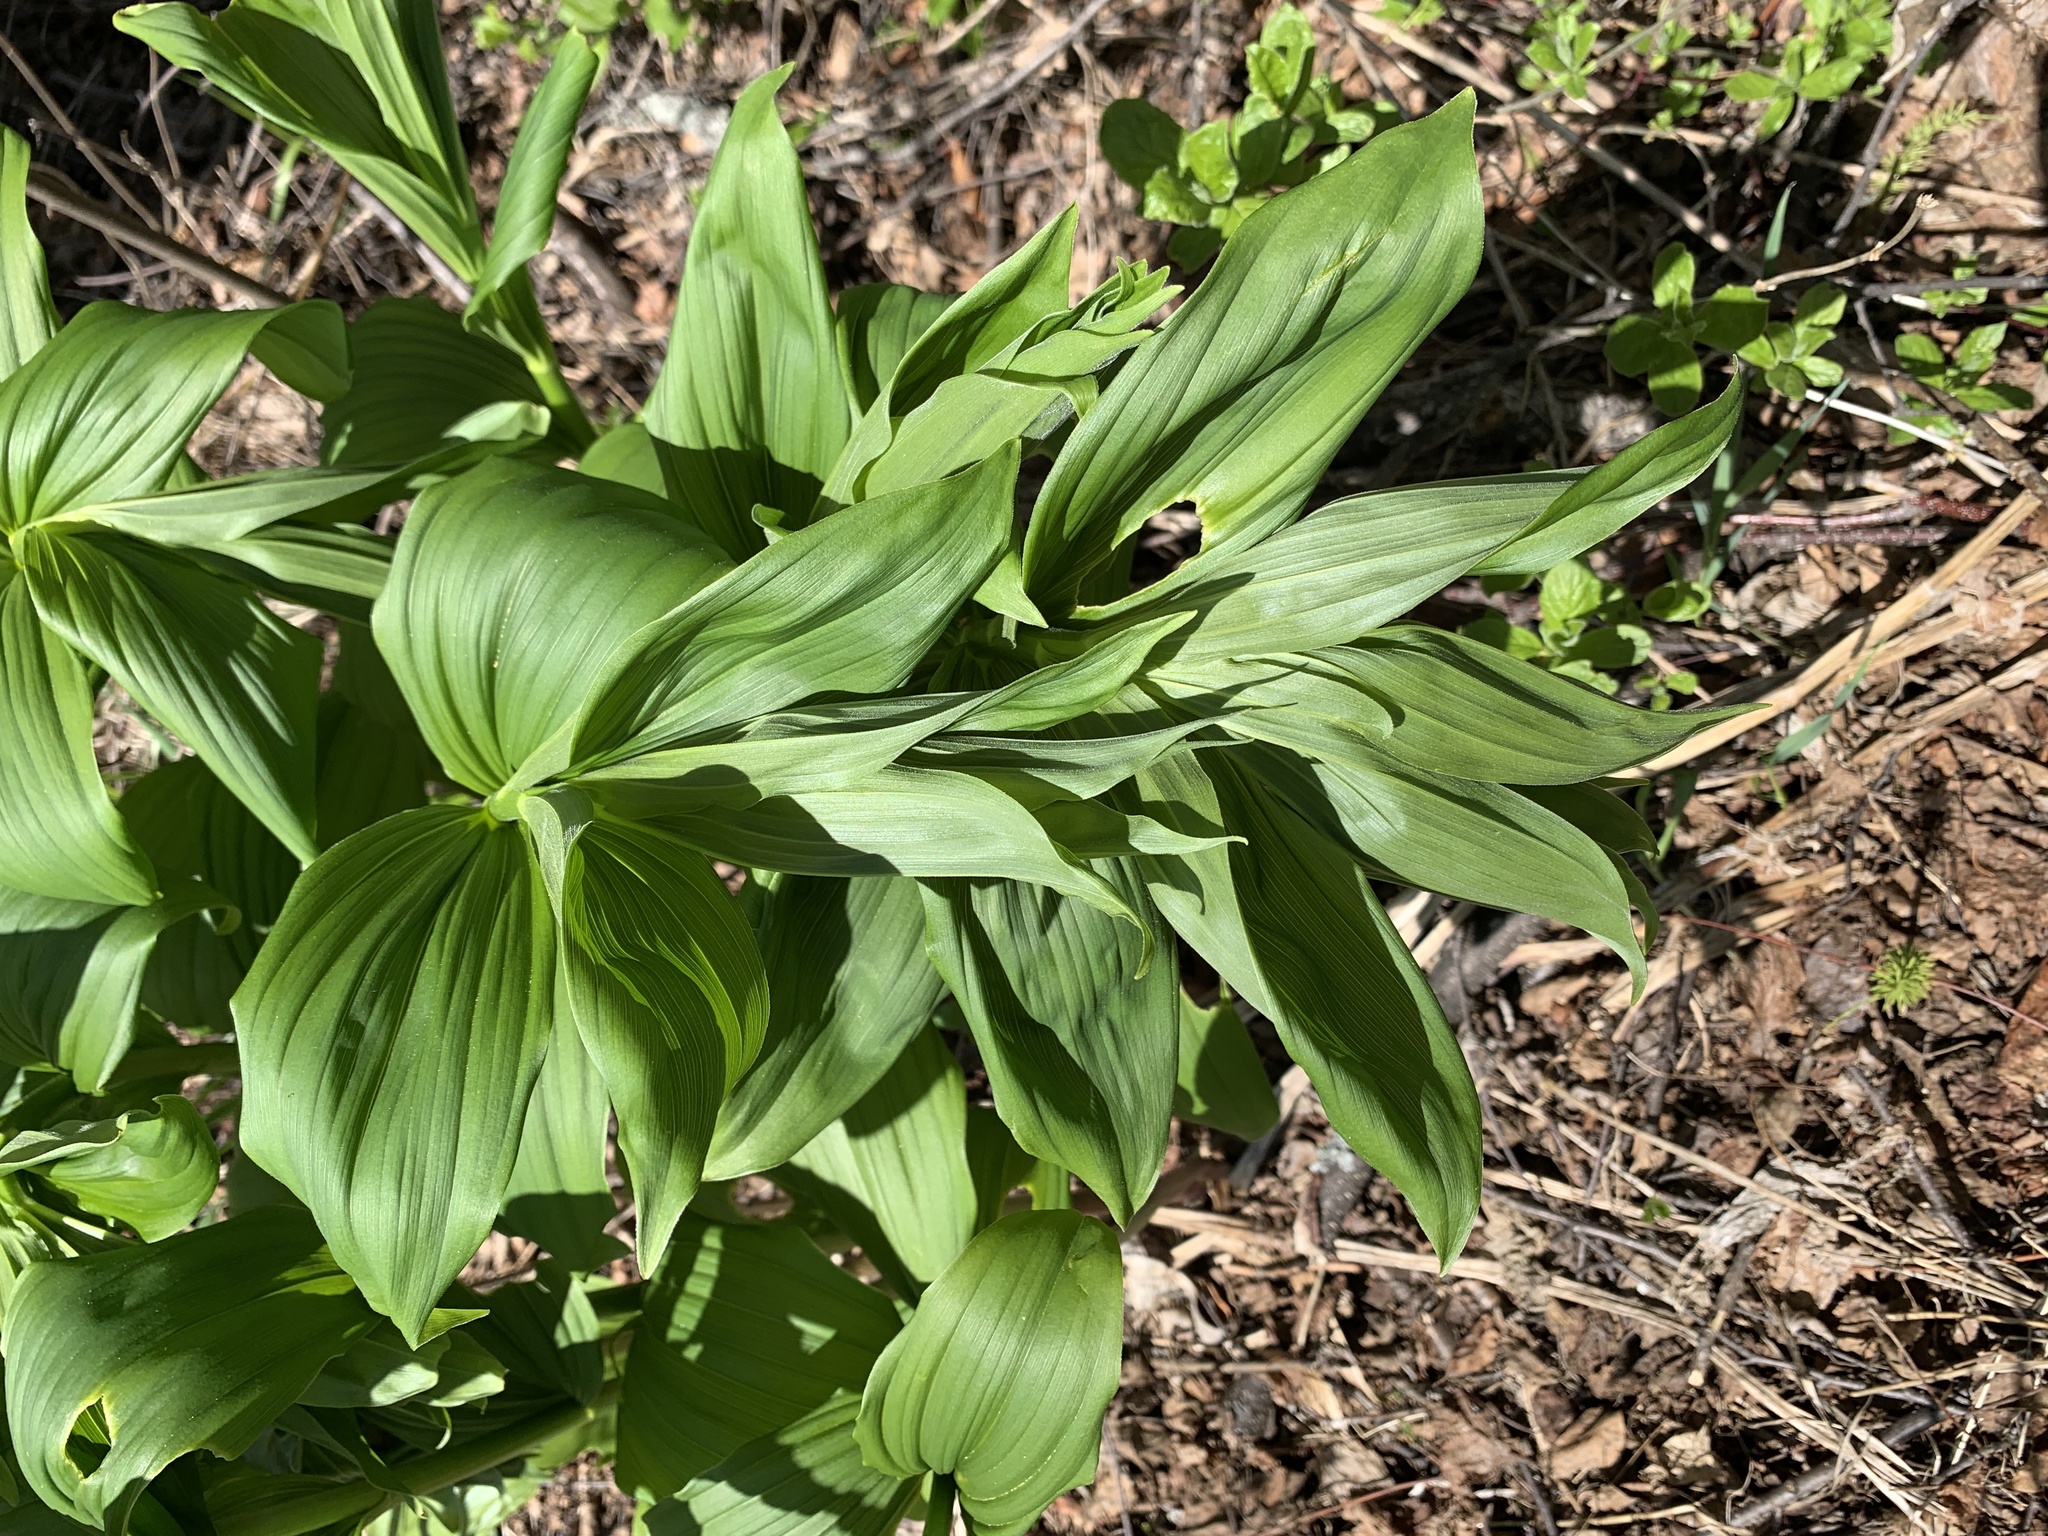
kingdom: Plantae
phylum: Tracheophyta
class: Liliopsida
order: Asparagales
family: Asparagaceae
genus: Maianthemum
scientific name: Maianthemum racemosum
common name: False spikenard
